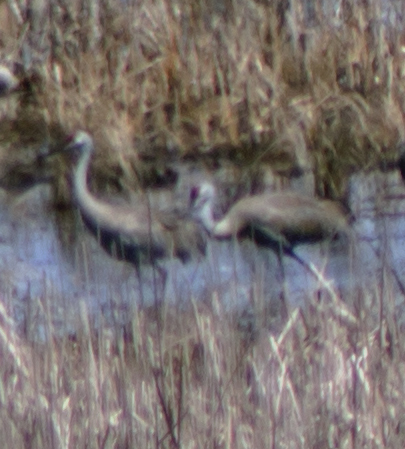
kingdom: Animalia
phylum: Chordata
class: Aves
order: Gruiformes
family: Gruidae
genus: Grus
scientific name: Grus canadensis
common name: Sandhill crane
